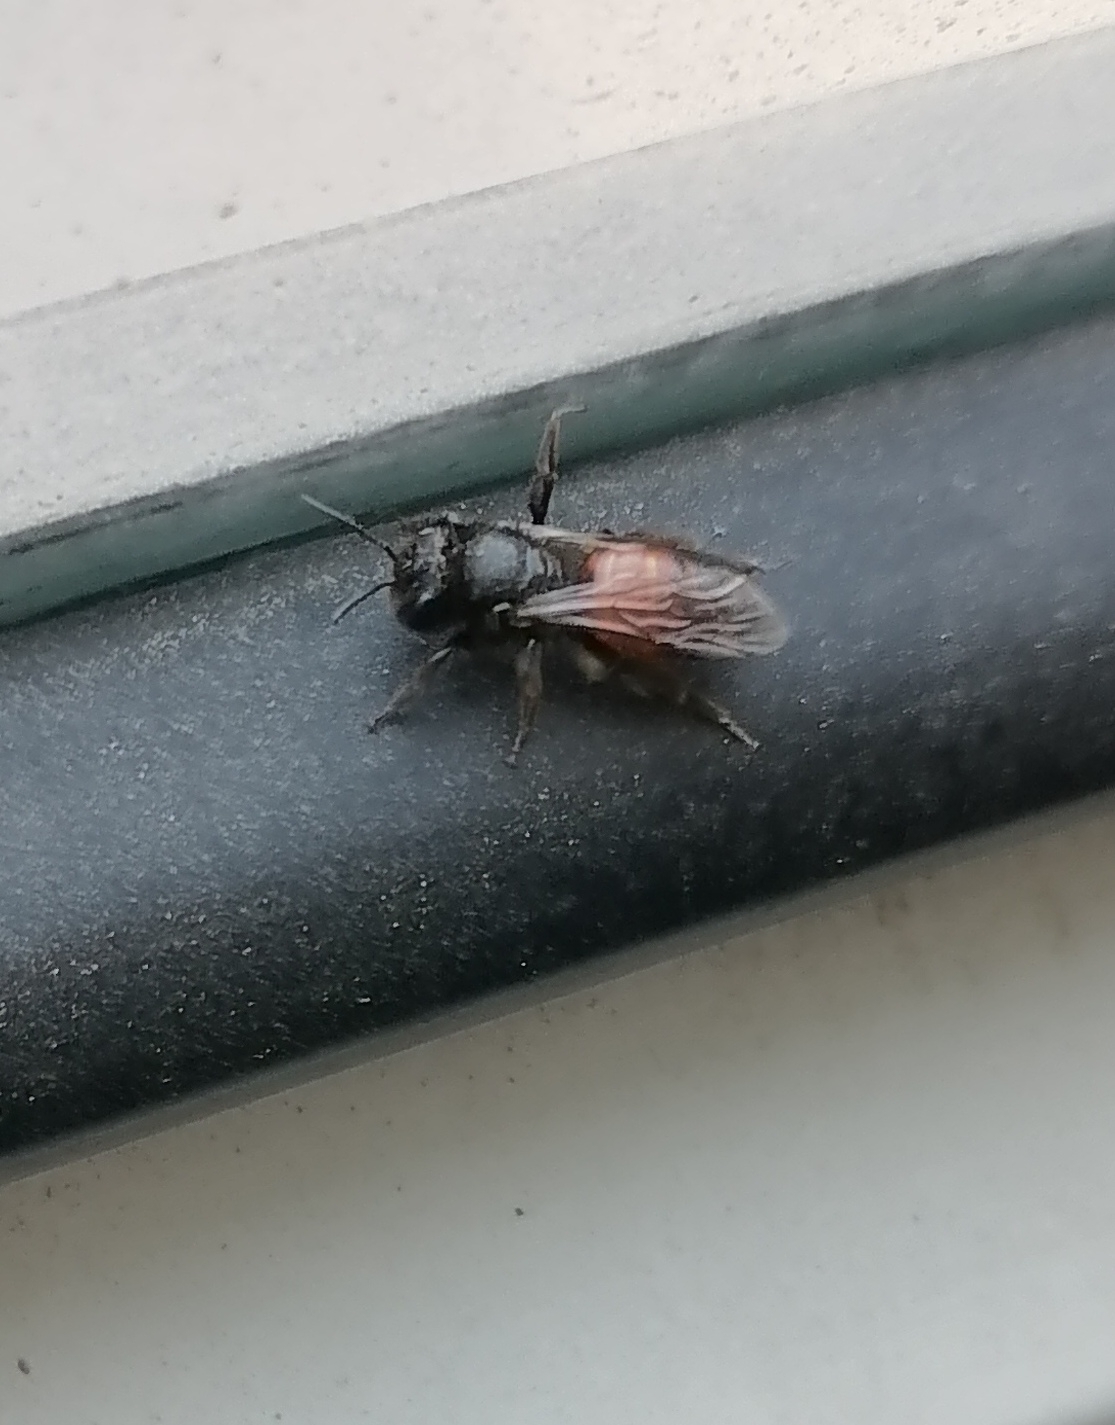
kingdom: Animalia
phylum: Arthropoda
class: Insecta
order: Hymenoptera
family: Andrenidae
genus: Andrena
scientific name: Andrena rosae
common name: Perkin's mining bee
